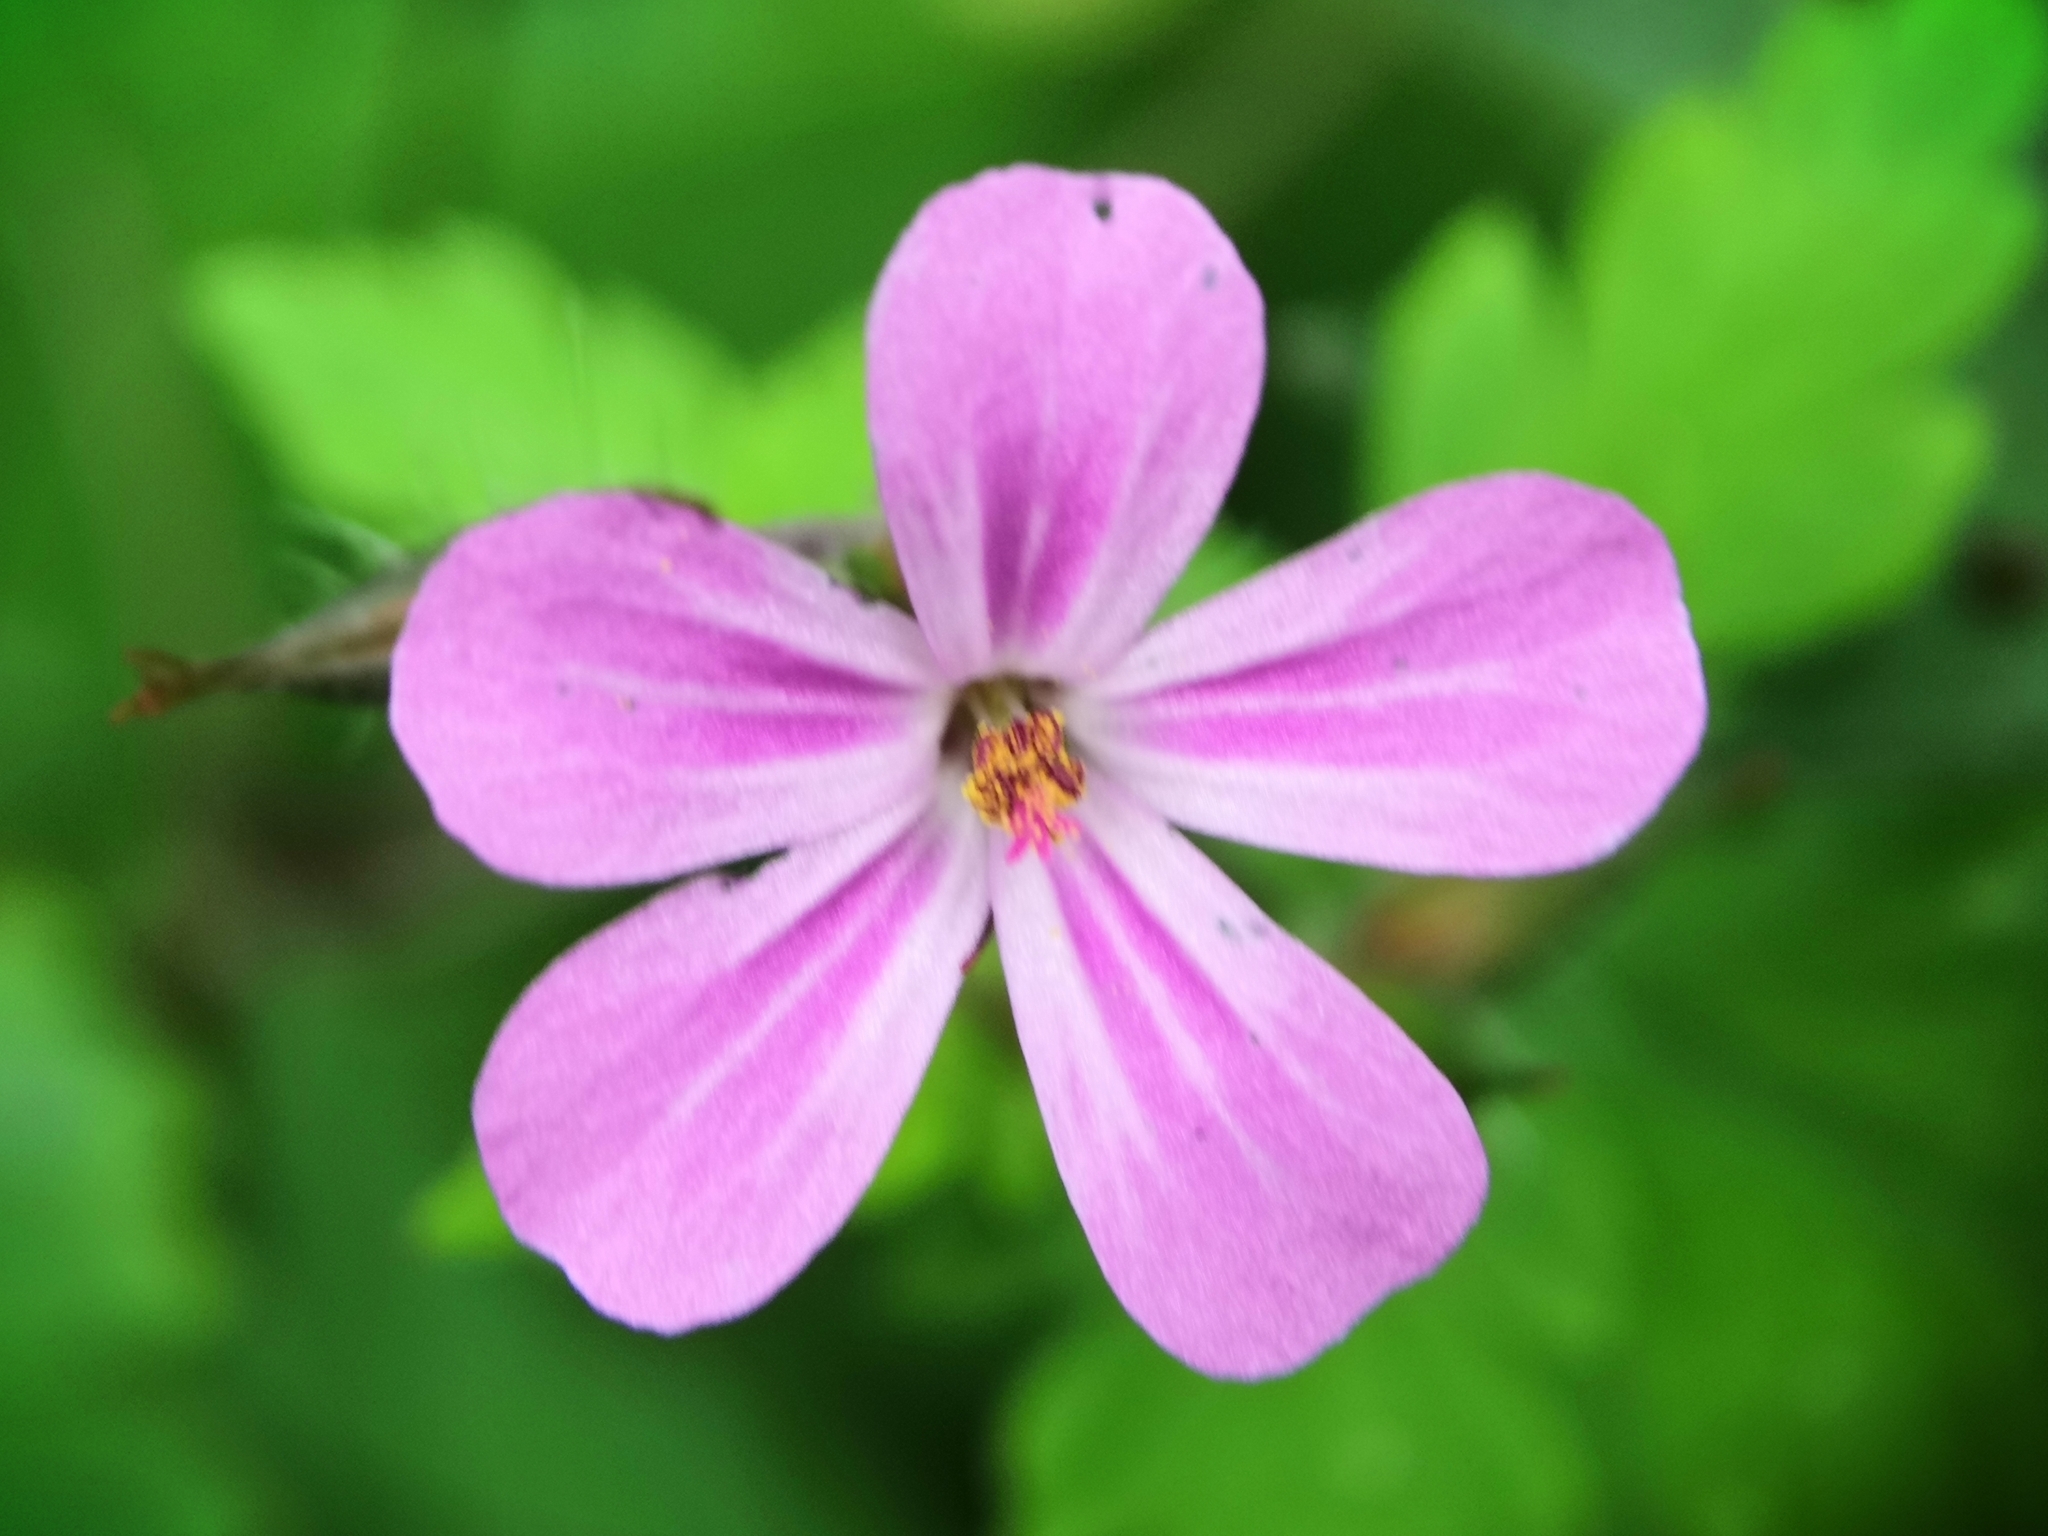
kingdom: Plantae
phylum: Tracheophyta
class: Magnoliopsida
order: Geraniales
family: Geraniaceae
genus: Geranium
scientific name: Geranium robertianum
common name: Herb-robert
